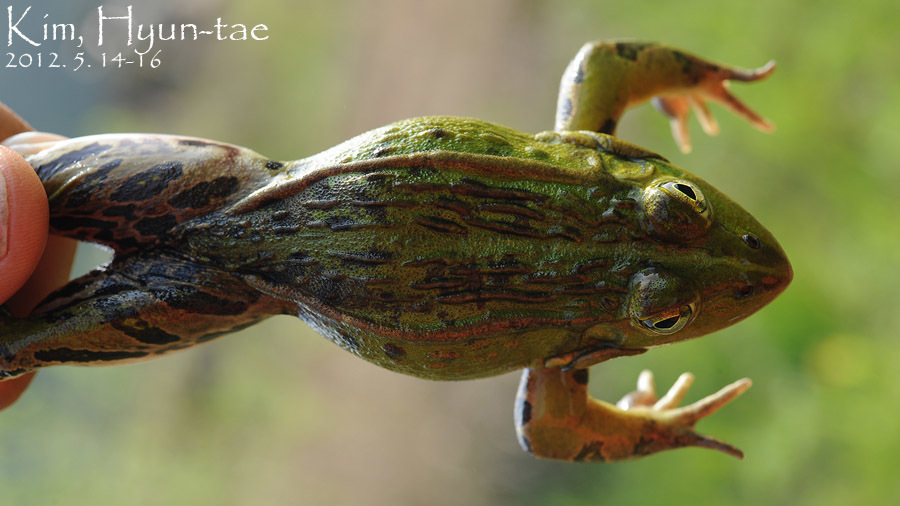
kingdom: Animalia
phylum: Chordata
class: Amphibia
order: Anura
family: Ranidae
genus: Pelophylax
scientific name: Pelophylax nigromaculatus
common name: Black-spotted pond frog
